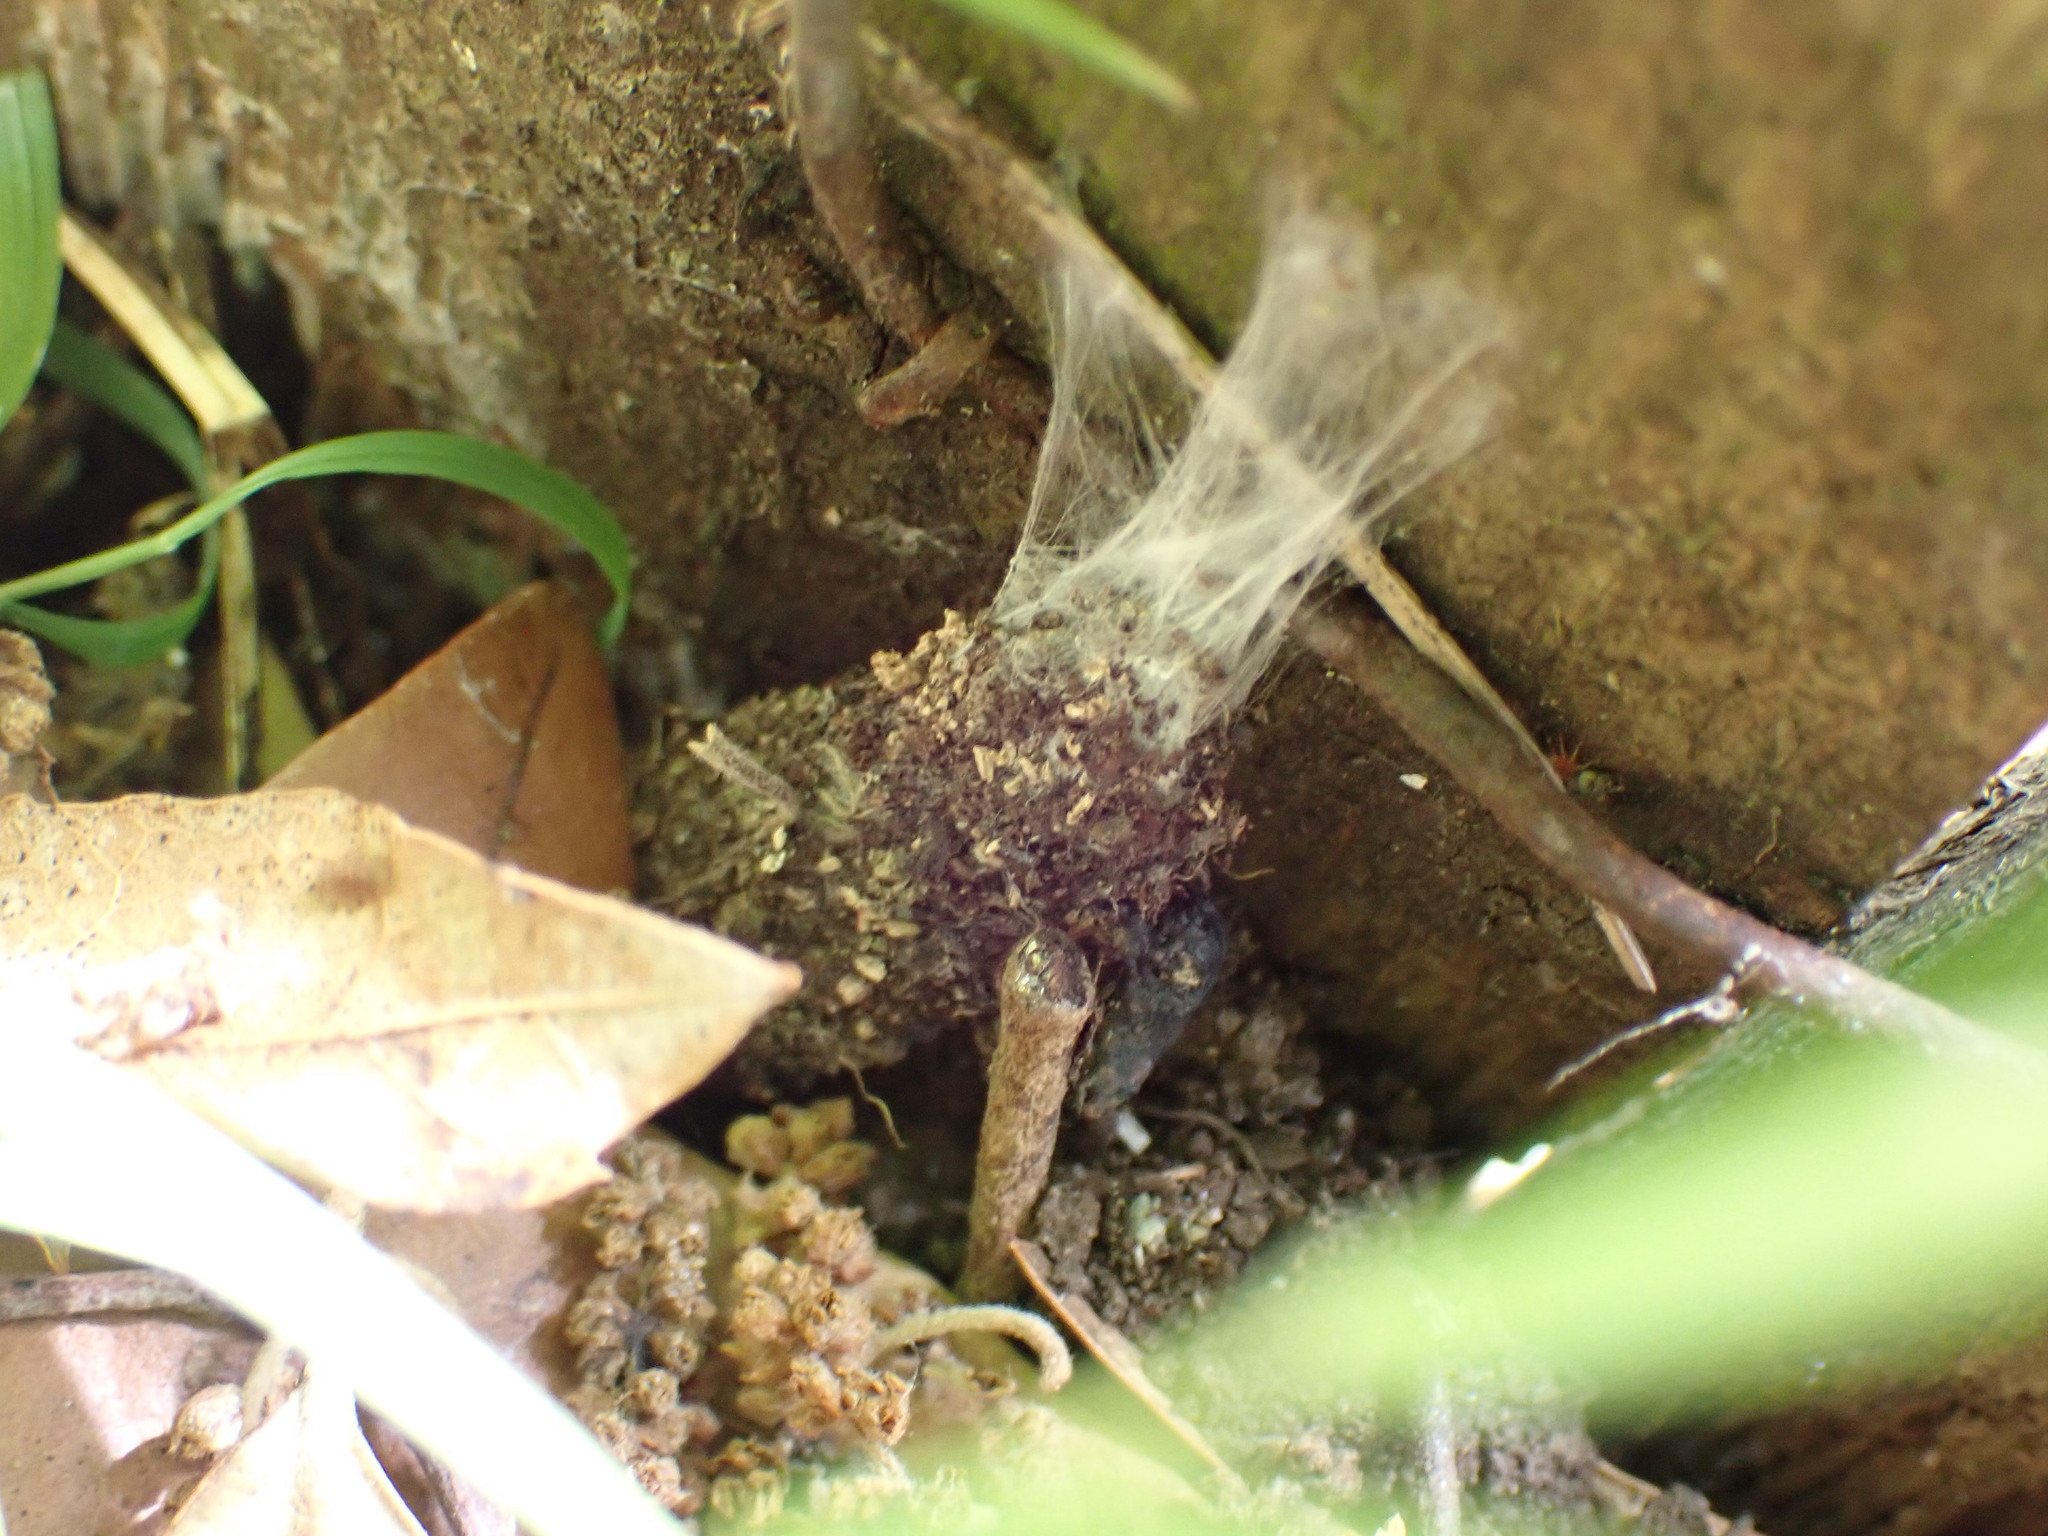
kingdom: Animalia
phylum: Arthropoda
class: Arachnida
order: Araneae
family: Atypidae
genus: Atypus
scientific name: Atypus affinis
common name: Purse web spider
